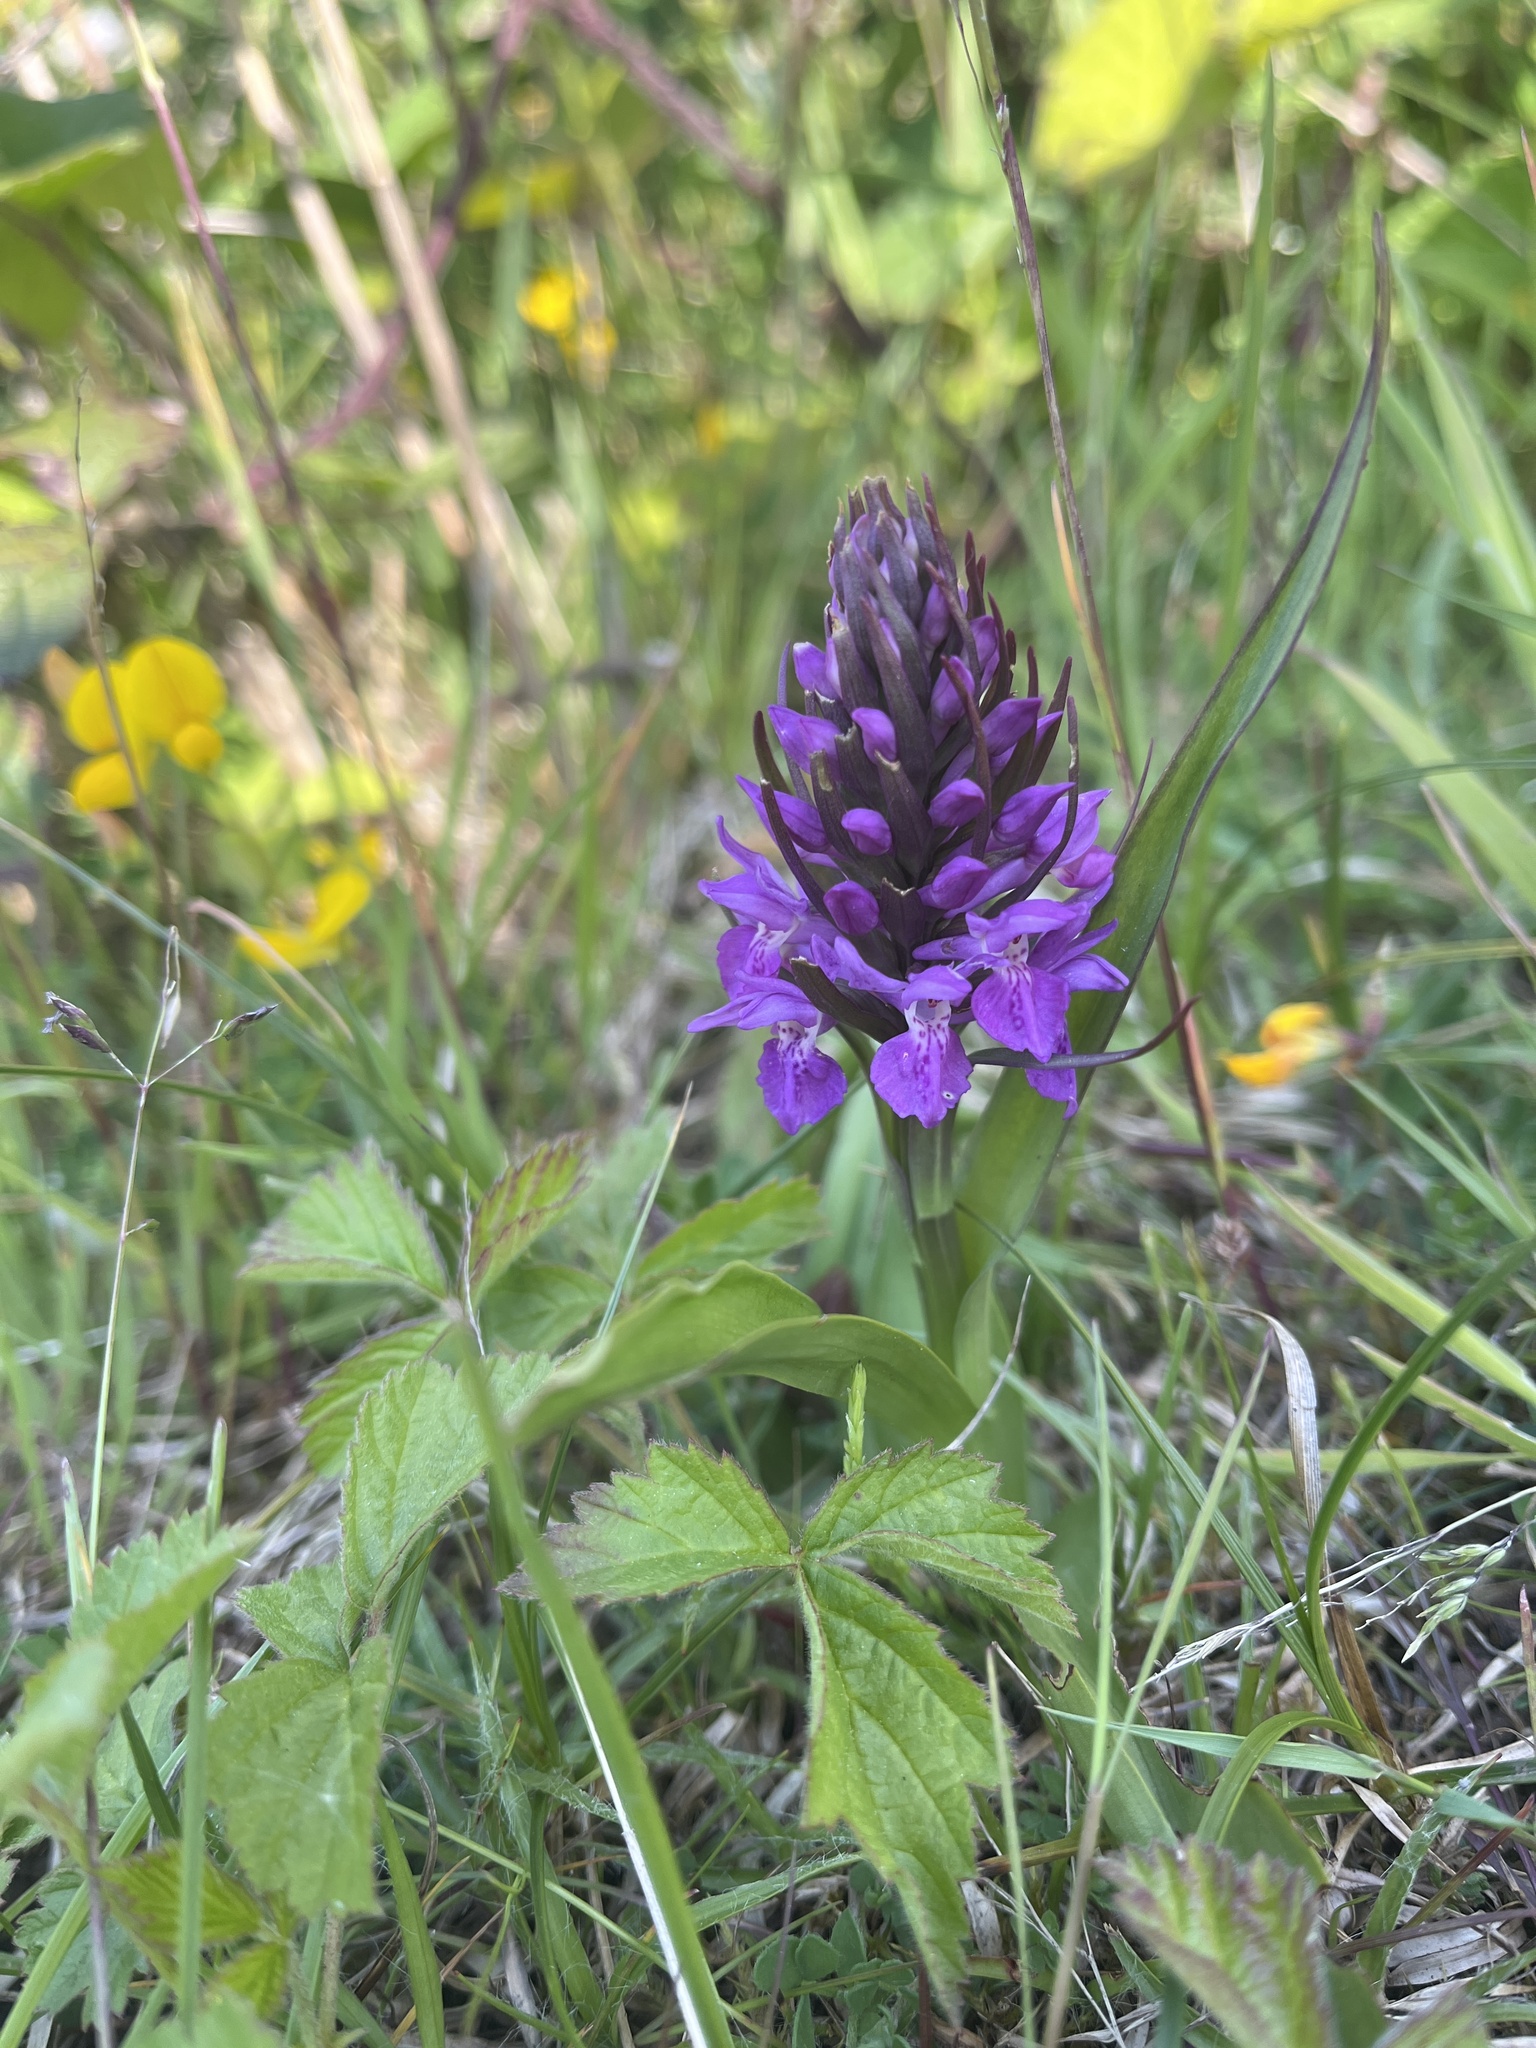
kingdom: Plantae
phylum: Tracheophyta
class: Liliopsida
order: Asparagales
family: Orchidaceae
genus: Dactylorhiza
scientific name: Dactylorhiza majalis
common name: Marsh orchid
